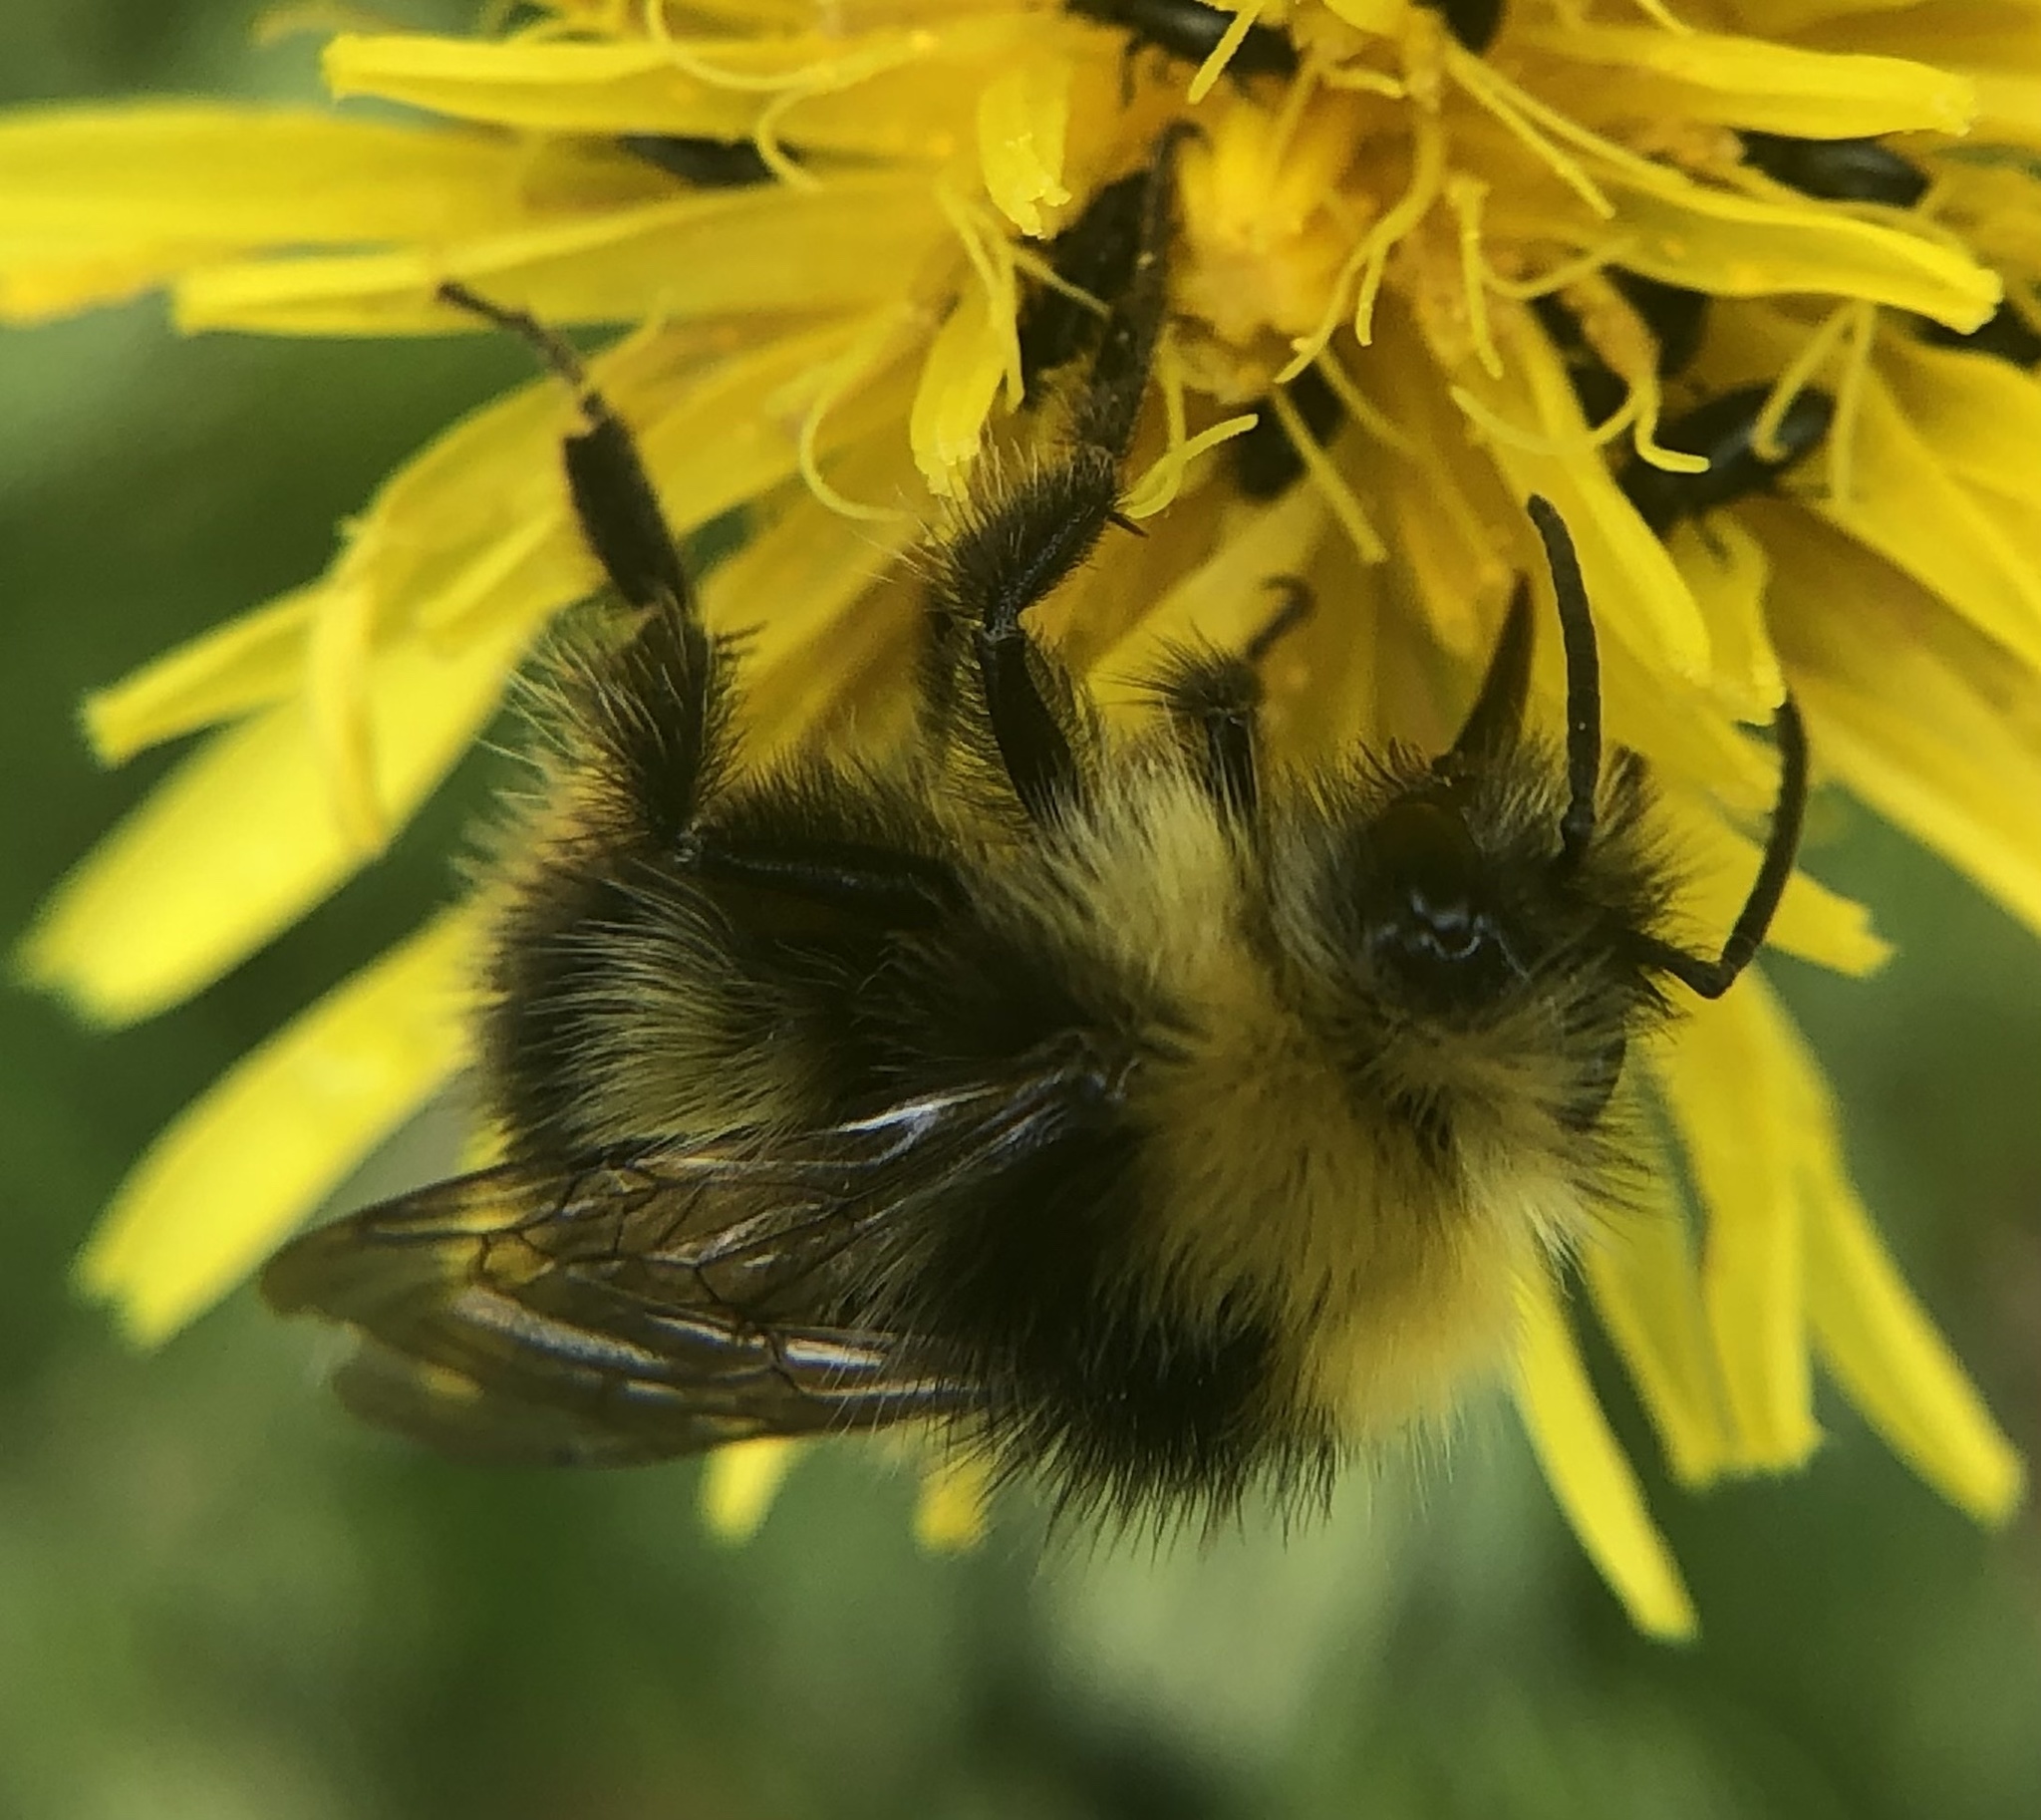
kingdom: Animalia
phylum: Arthropoda
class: Insecta
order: Hymenoptera
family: Apidae
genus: Bombus
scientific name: Bombus pratorum
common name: Early humble-bee
